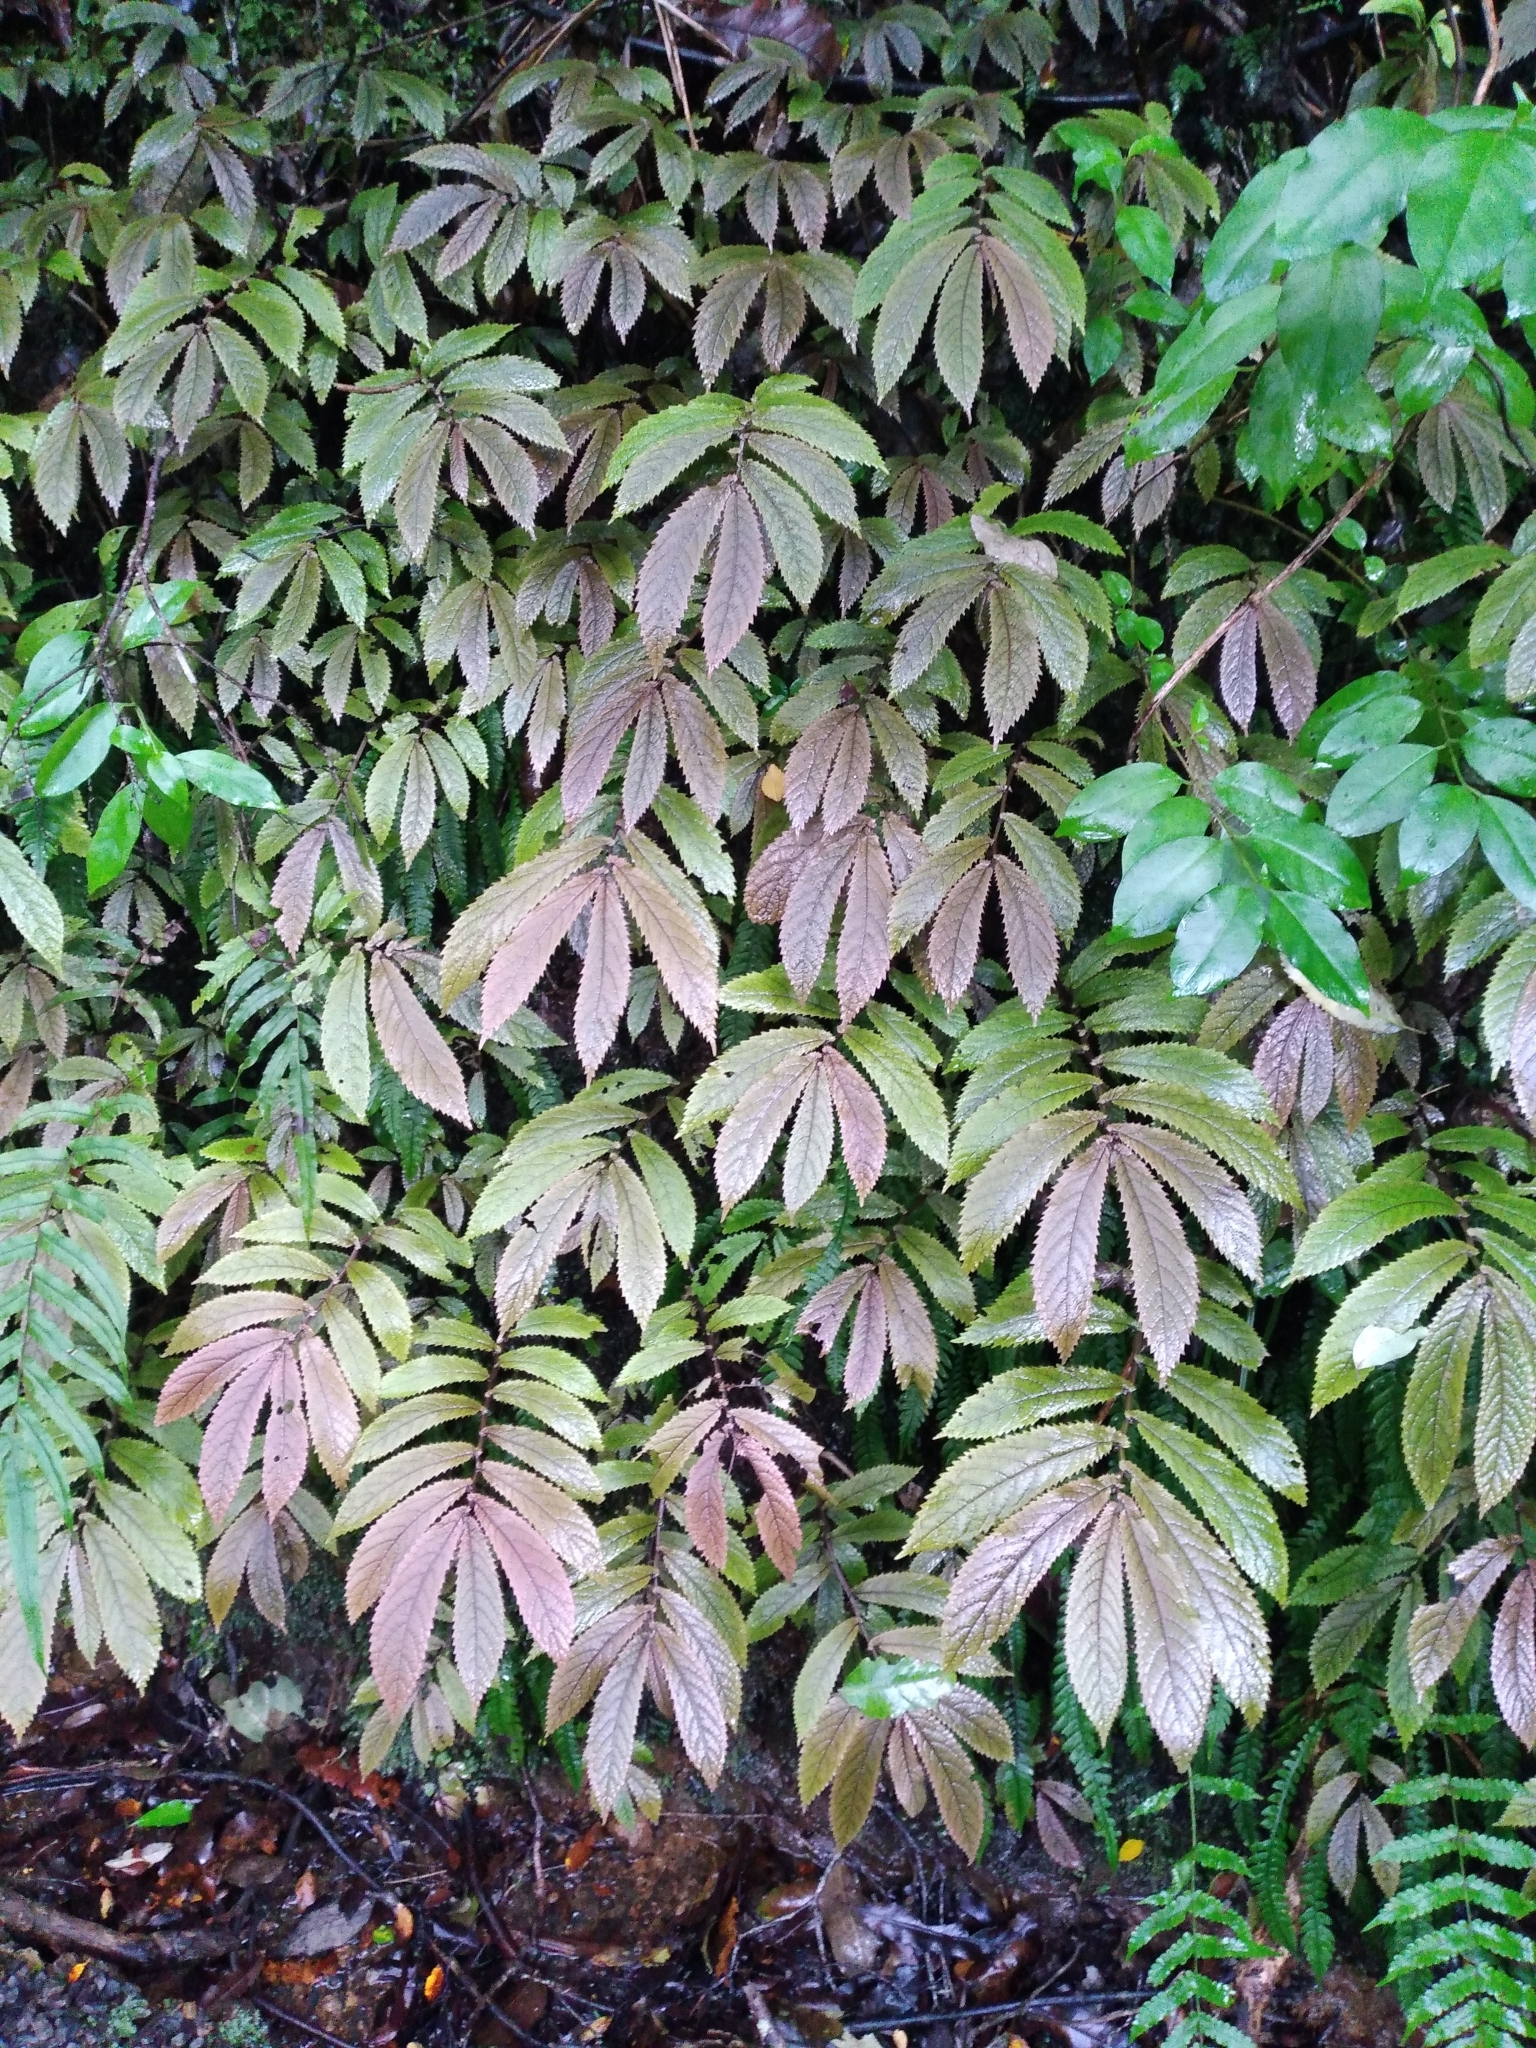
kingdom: Plantae
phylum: Tracheophyta
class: Magnoliopsida
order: Rosales
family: Urticaceae
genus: Elatostema
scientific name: Elatostema rugosum
